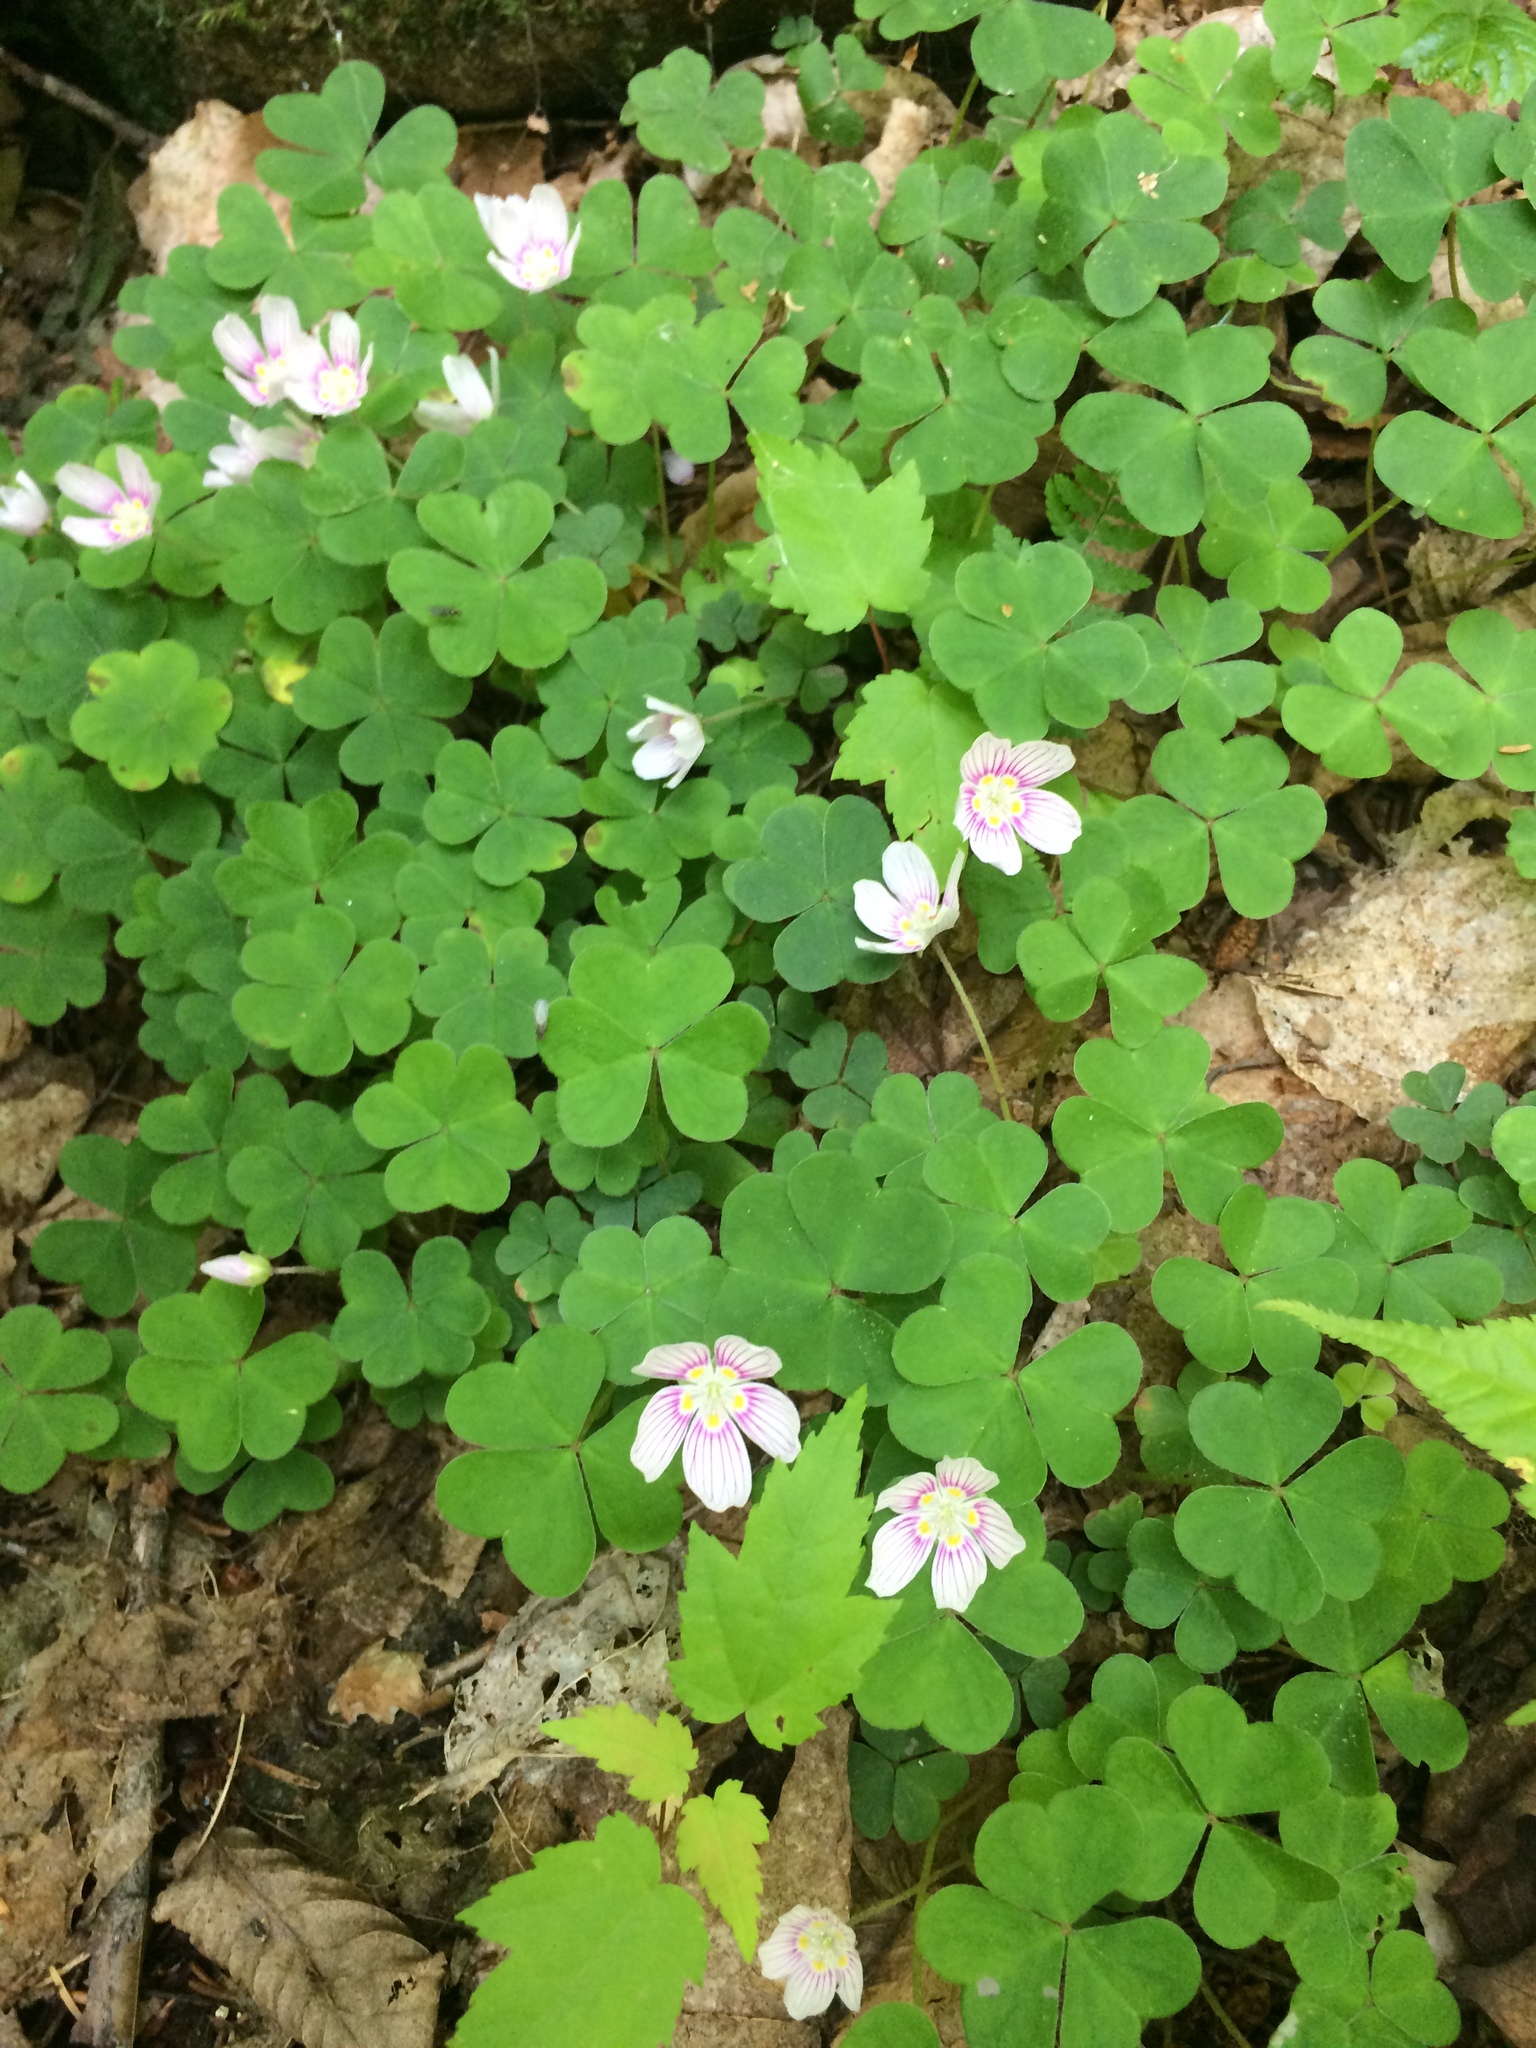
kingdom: Plantae
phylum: Tracheophyta
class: Magnoliopsida
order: Oxalidales
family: Oxalidaceae
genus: Oxalis
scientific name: Oxalis montana
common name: American wood-sorrel
